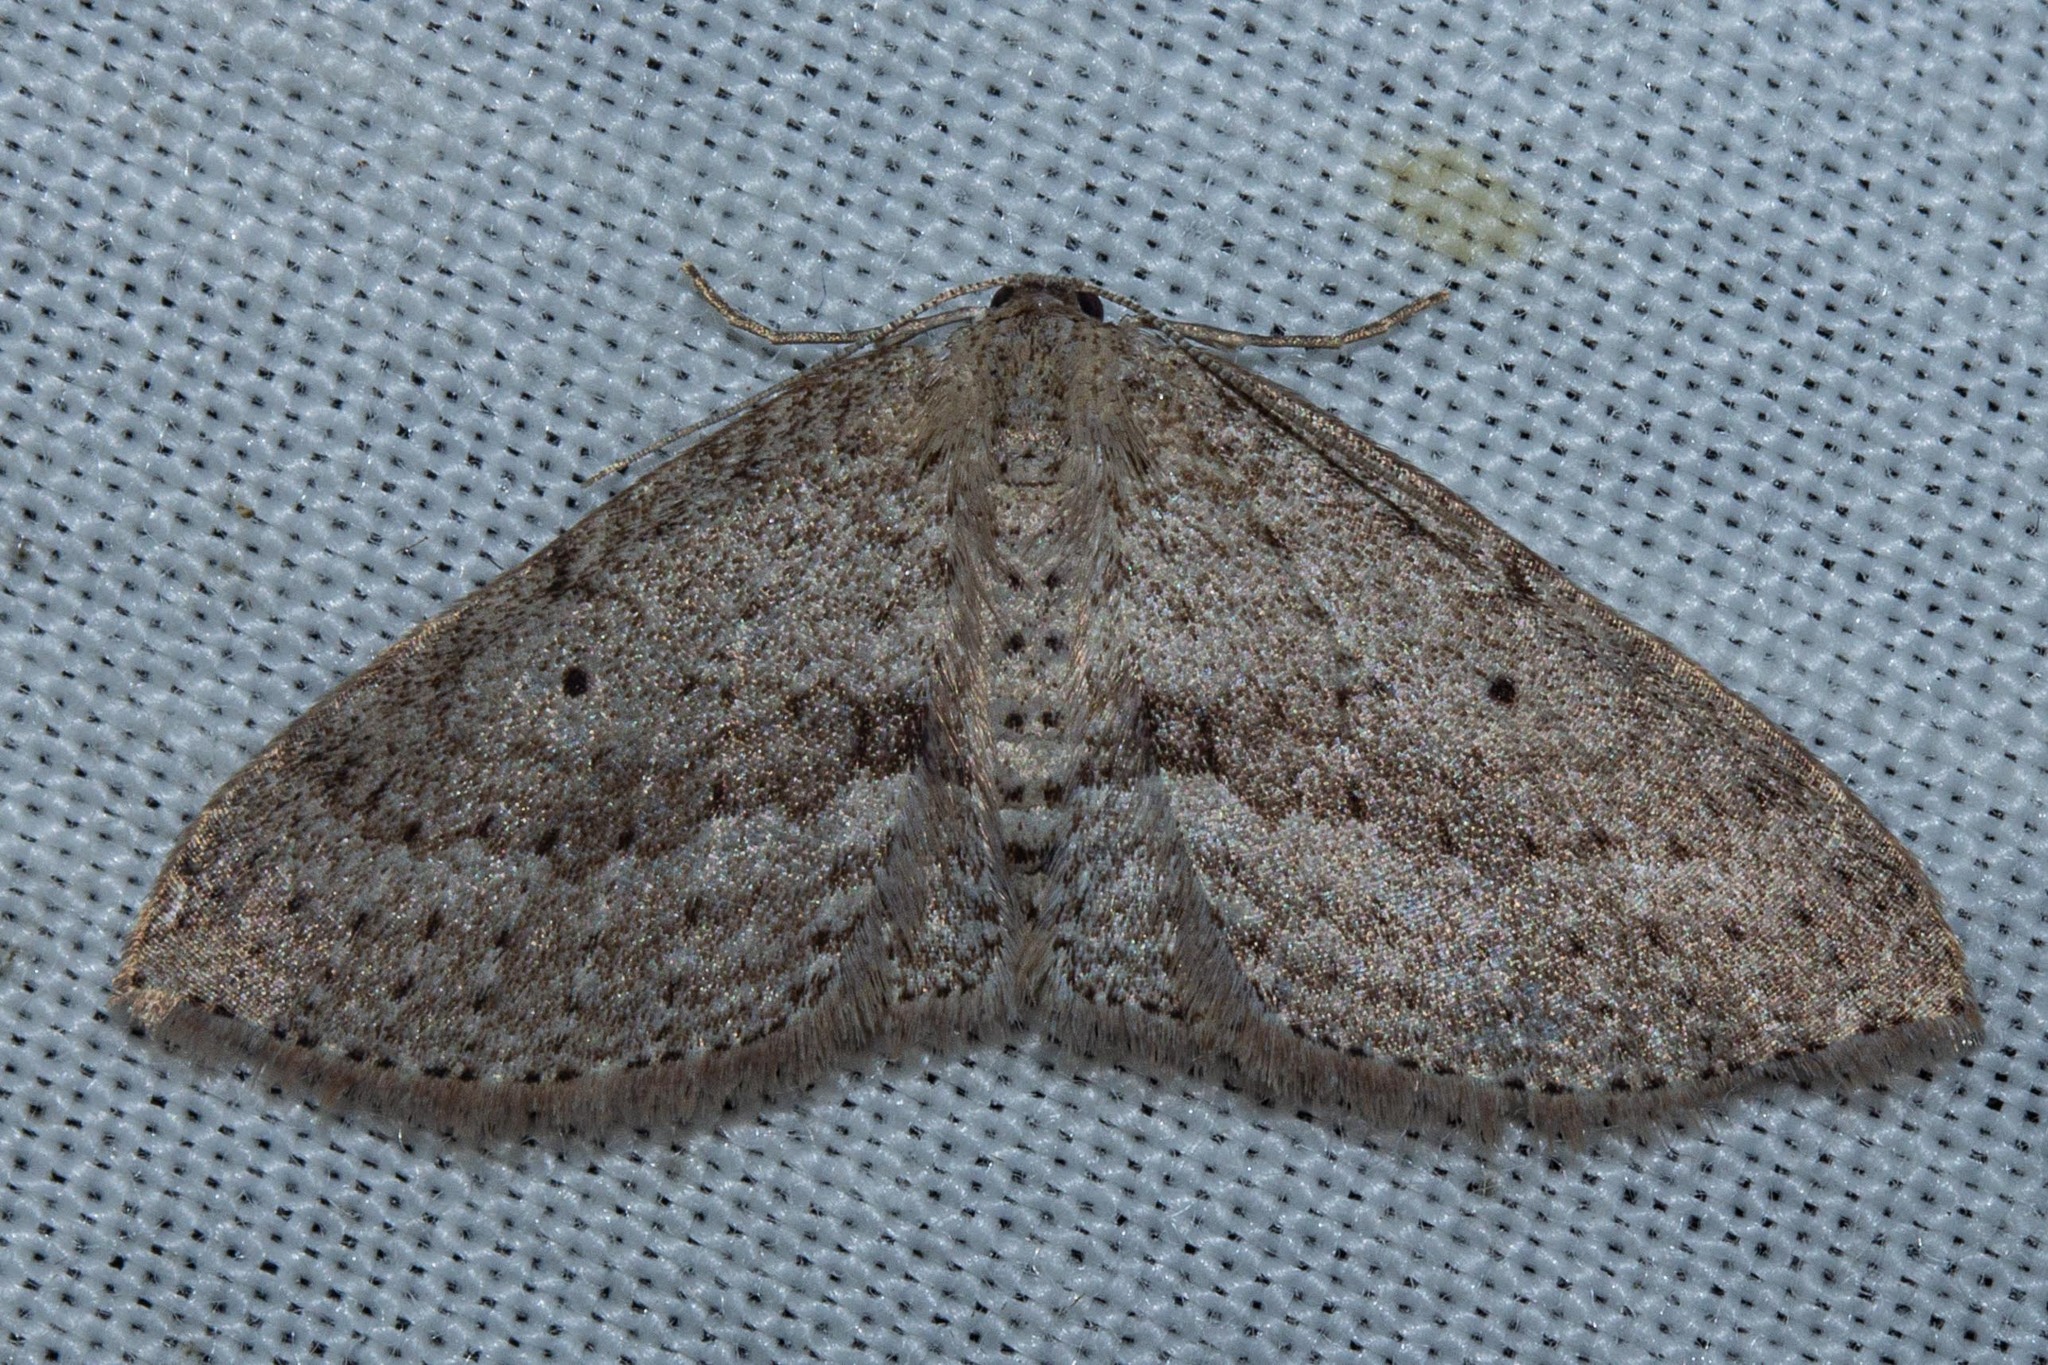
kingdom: Animalia
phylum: Arthropoda
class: Insecta
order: Lepidoptera
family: Geometridae
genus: Poecilasthena
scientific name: Poecilasthena schistaria
